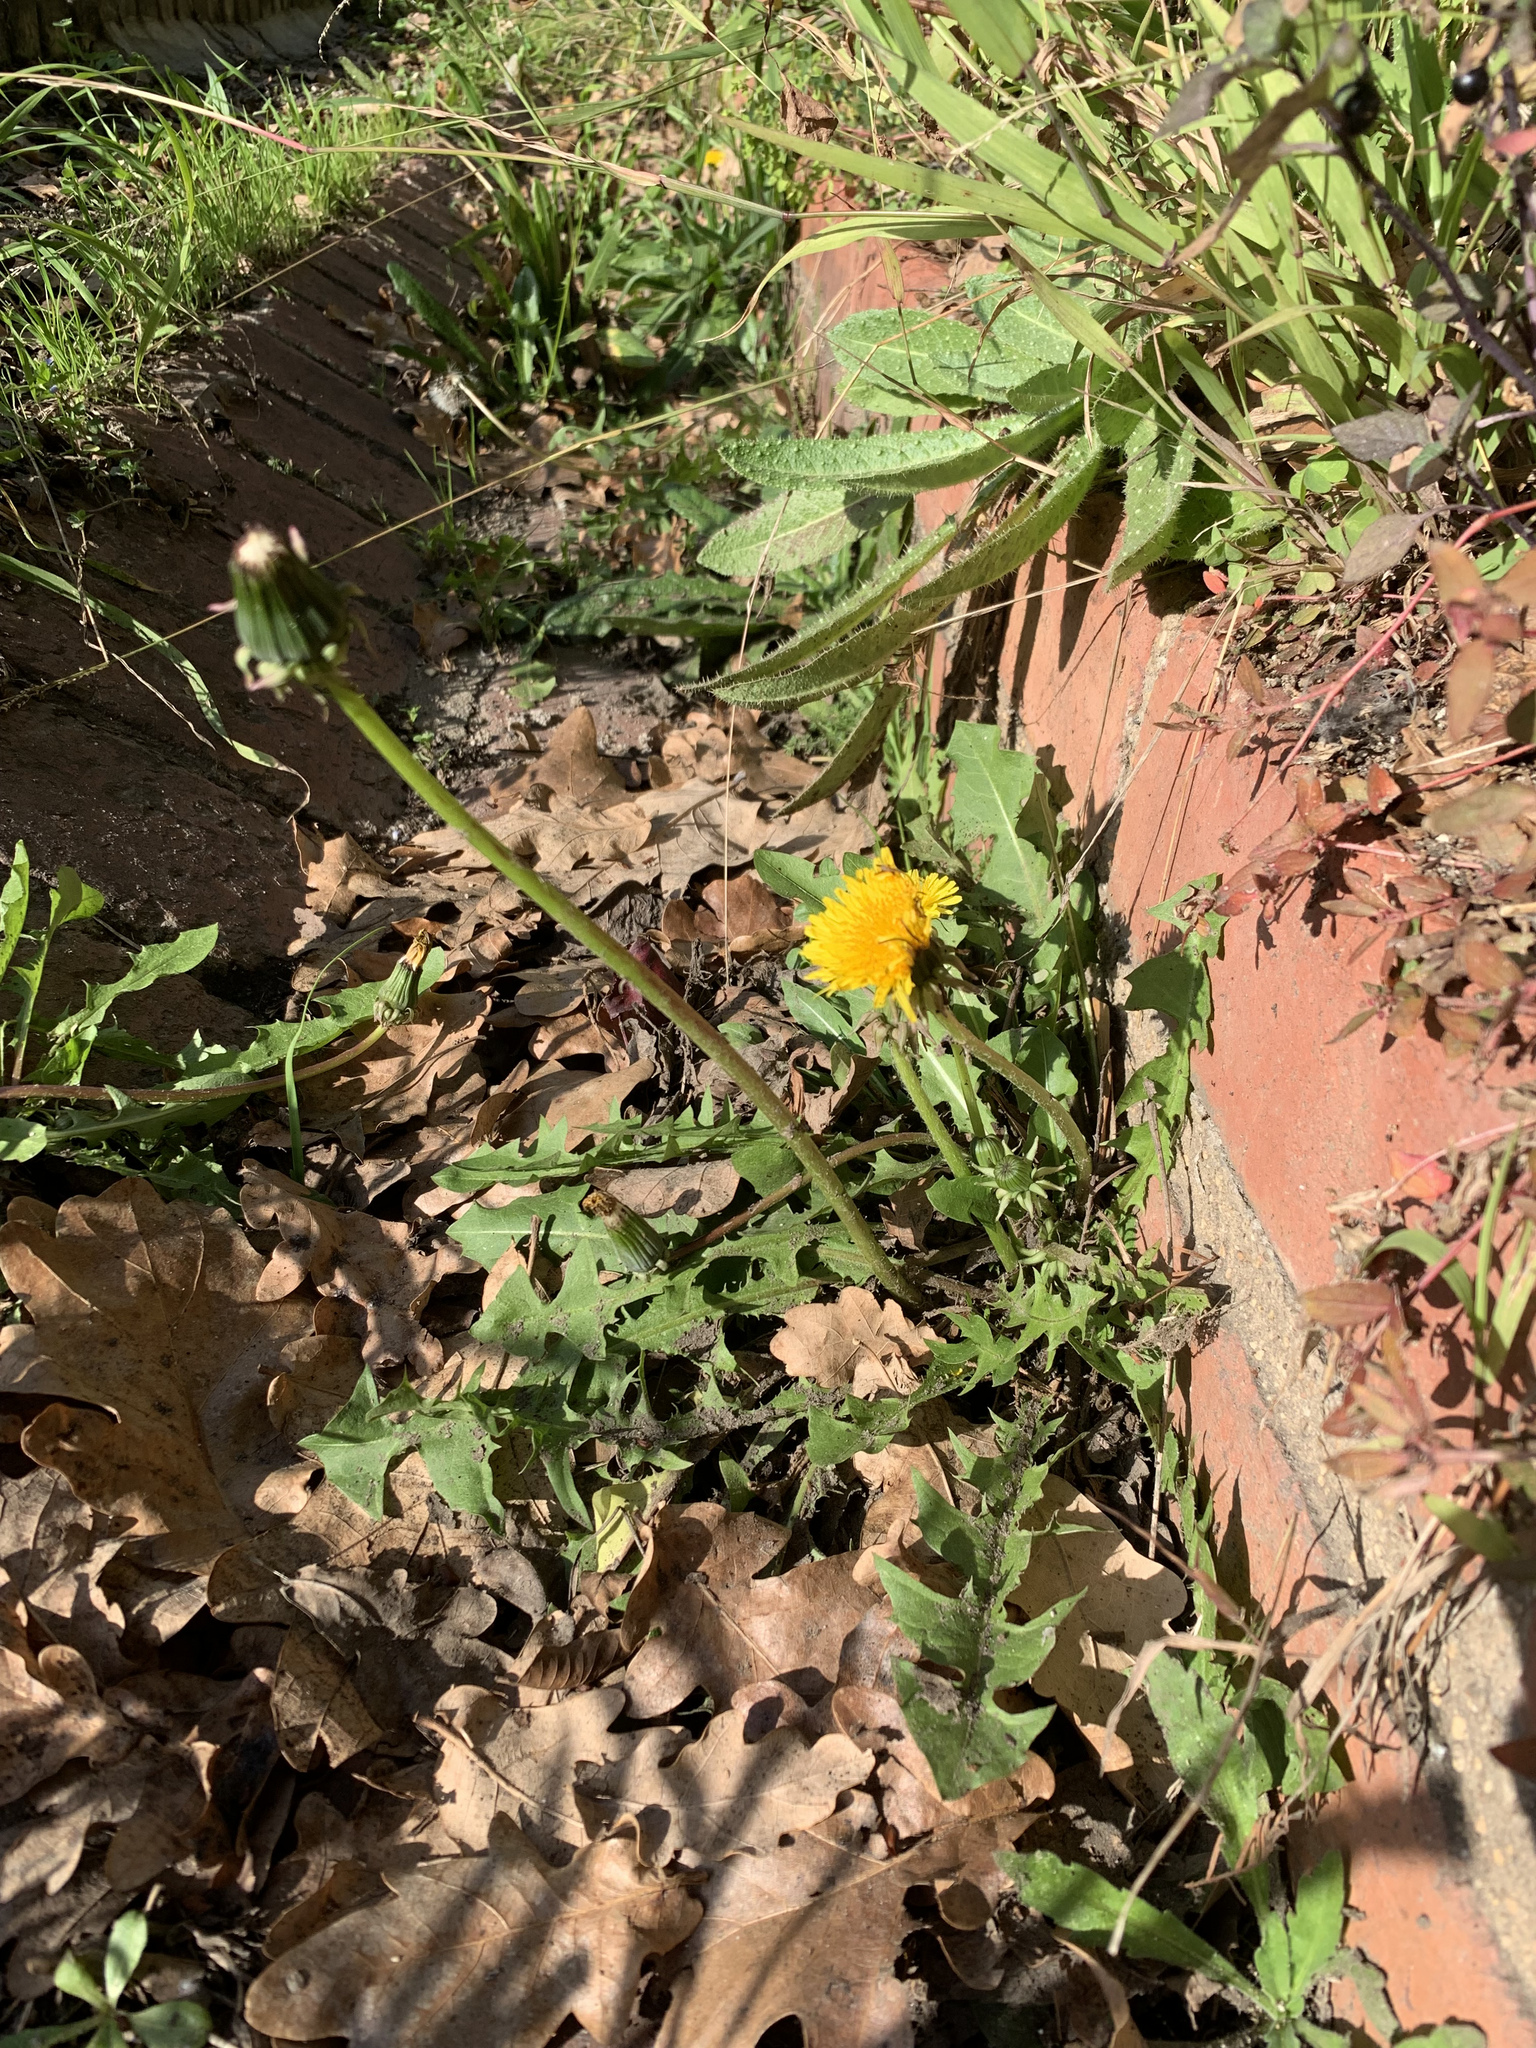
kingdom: Plantae
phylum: Tracheophyta
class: Magnoliopsida
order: Asterales
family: Asteraceae
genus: Taraxacum
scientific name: Taraxacum officinale
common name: Common dandelion
